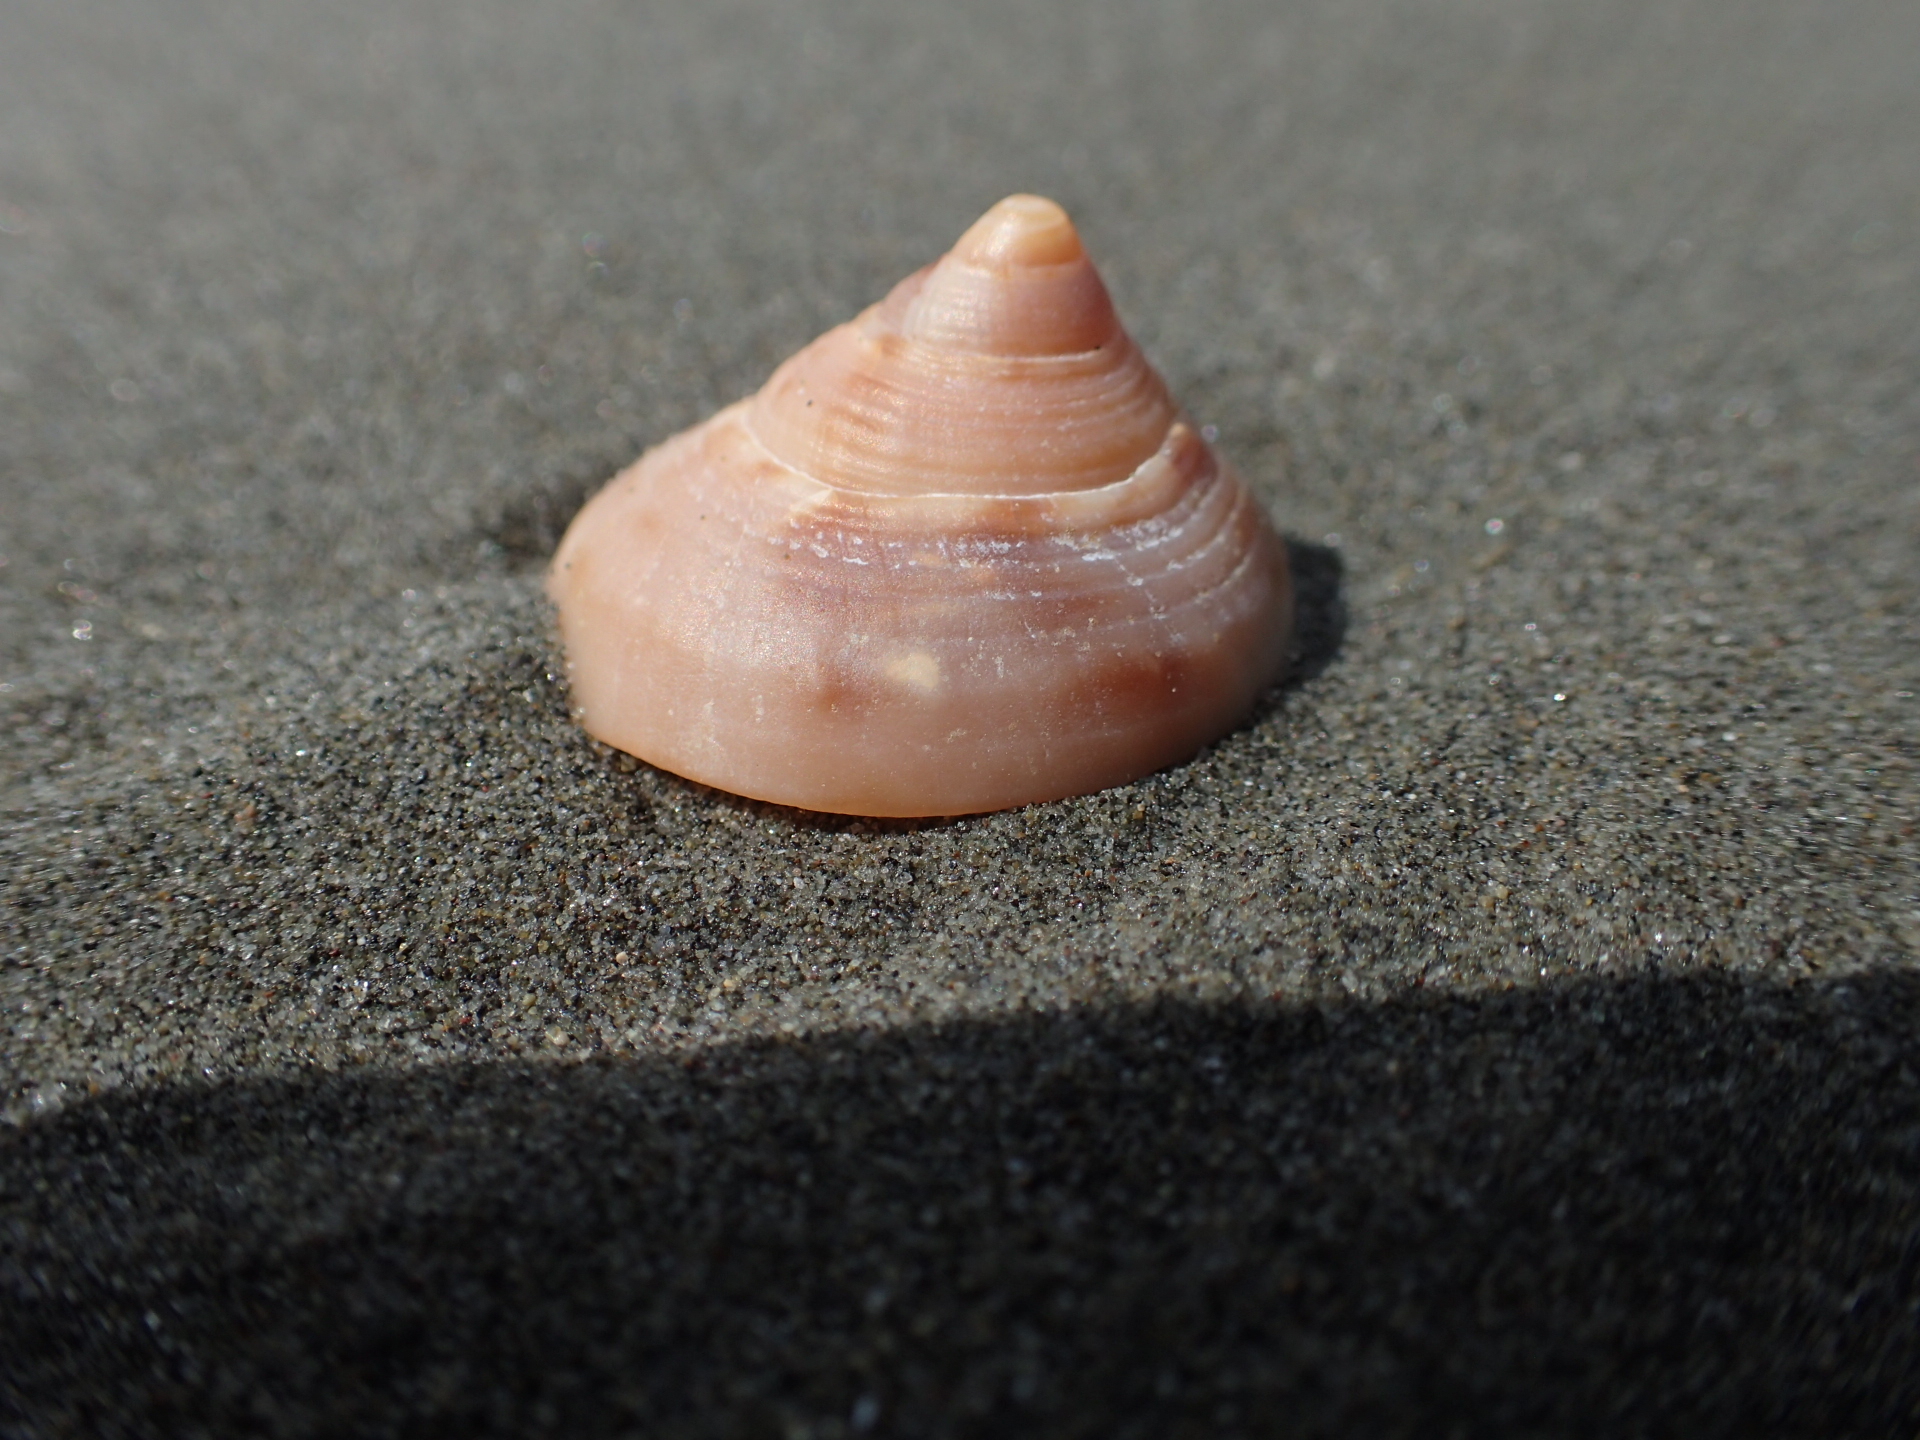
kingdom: Animalia
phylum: Mollusca
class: Gastropoda
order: Littorinimorpha
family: Cassidae
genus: Semicassis
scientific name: Semicassis pyrum
